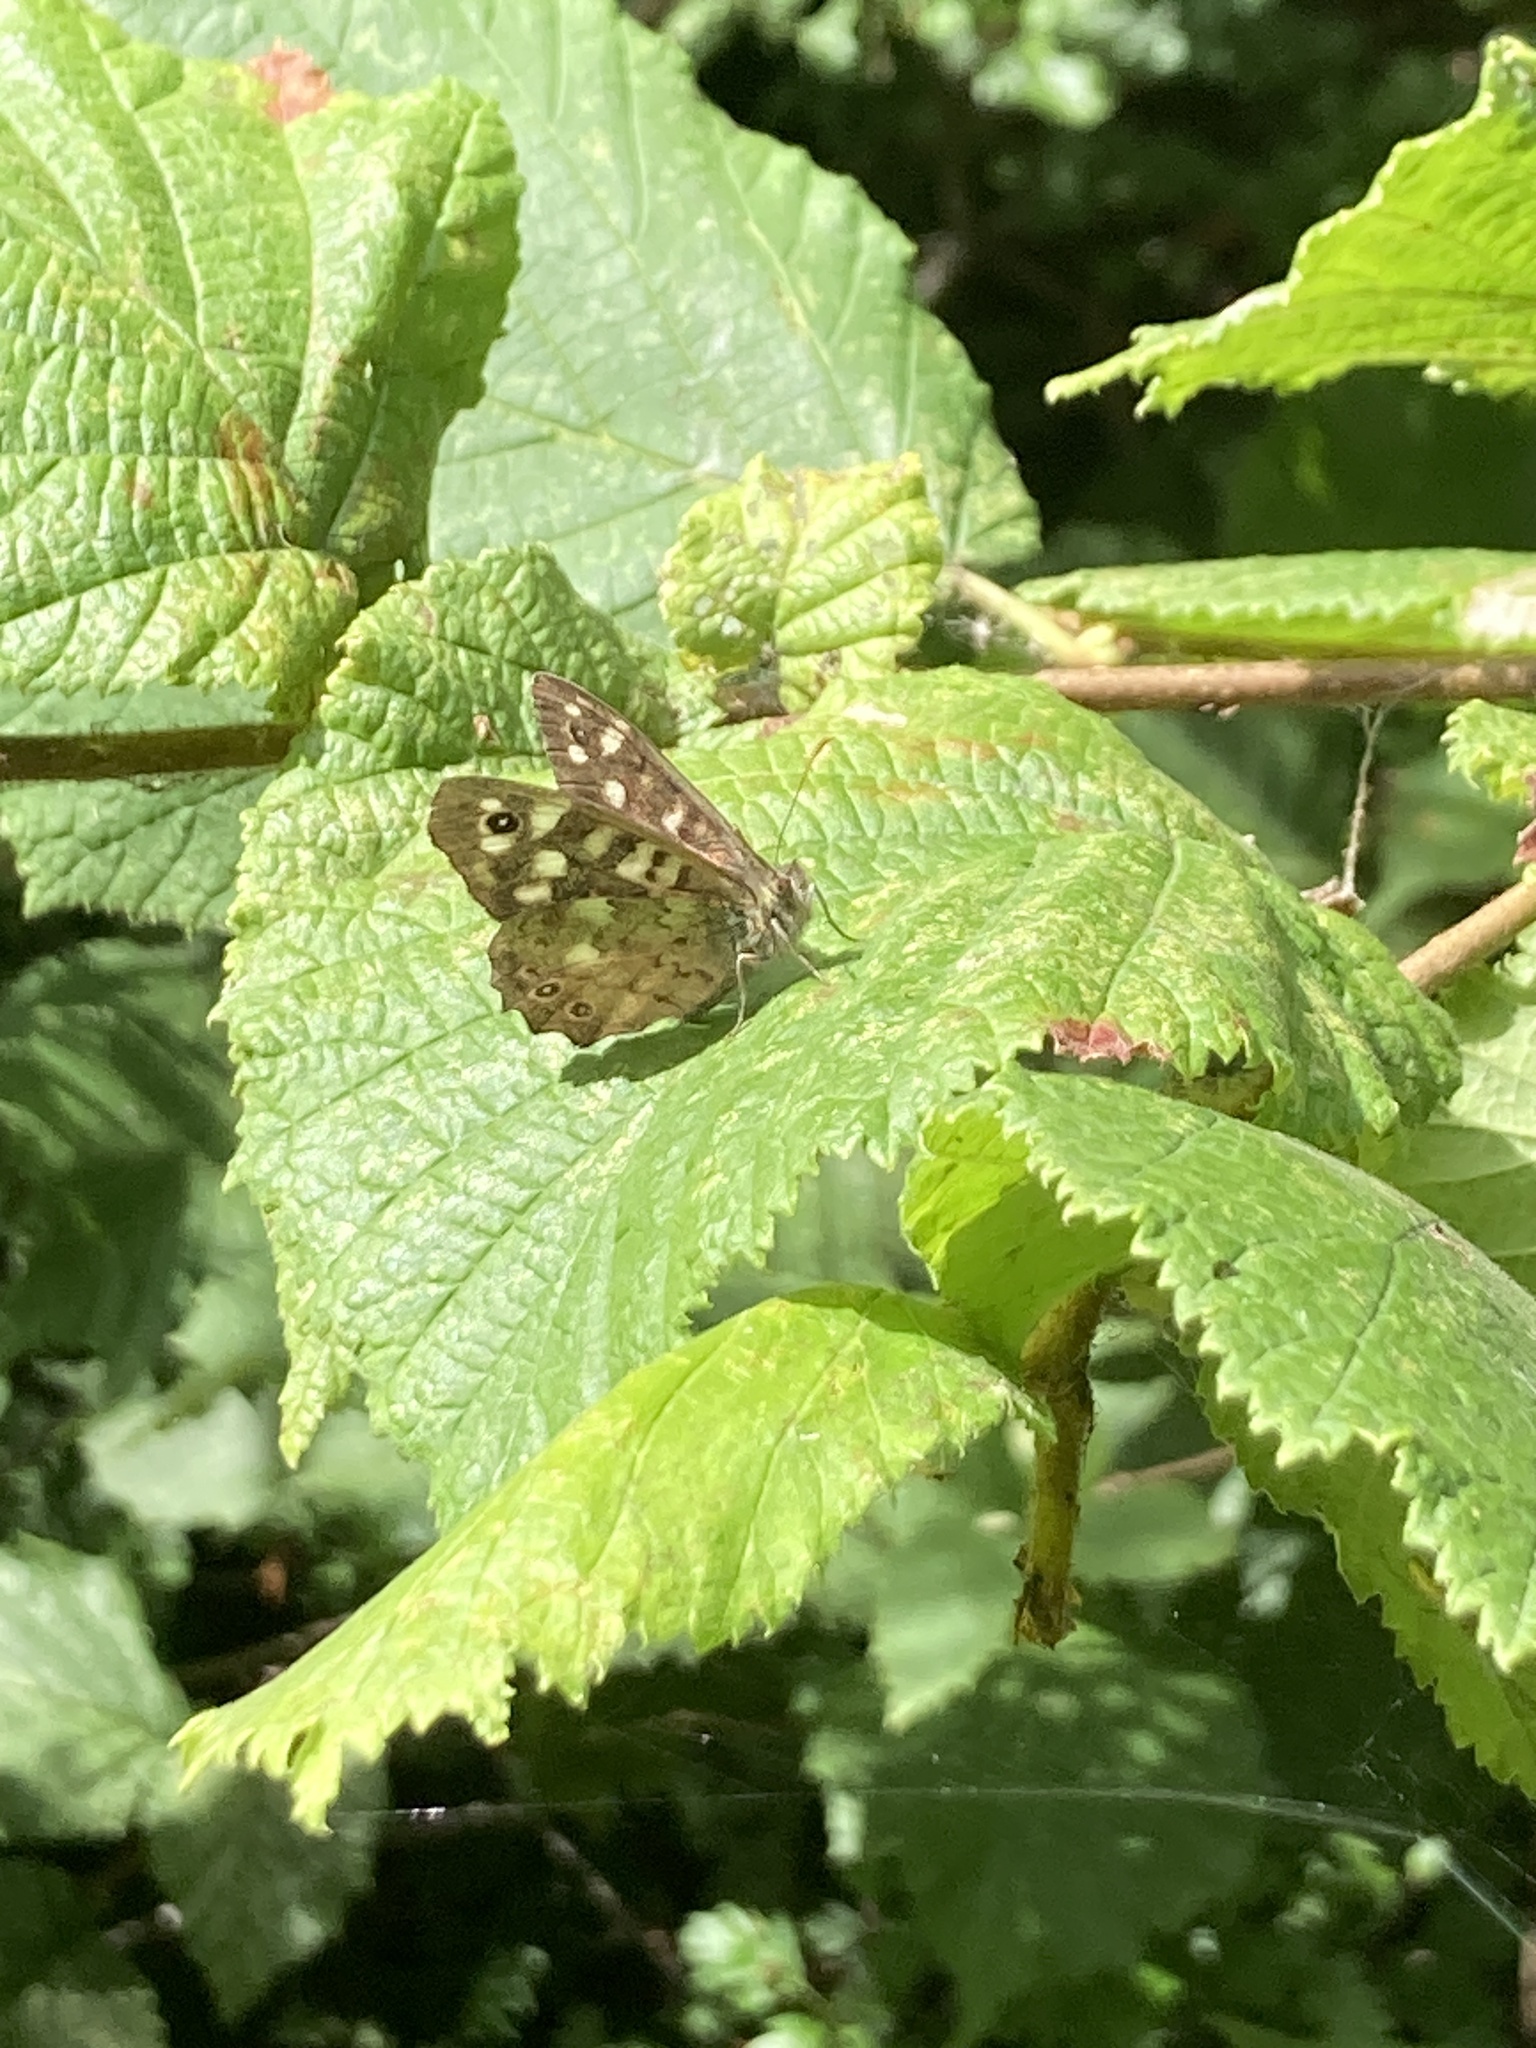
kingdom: Animalia
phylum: Arthropoda
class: Insecta
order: Lepidoptera
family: Nymphalidae
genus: Pararge
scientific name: Pararge aegeria
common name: Speckled wood
